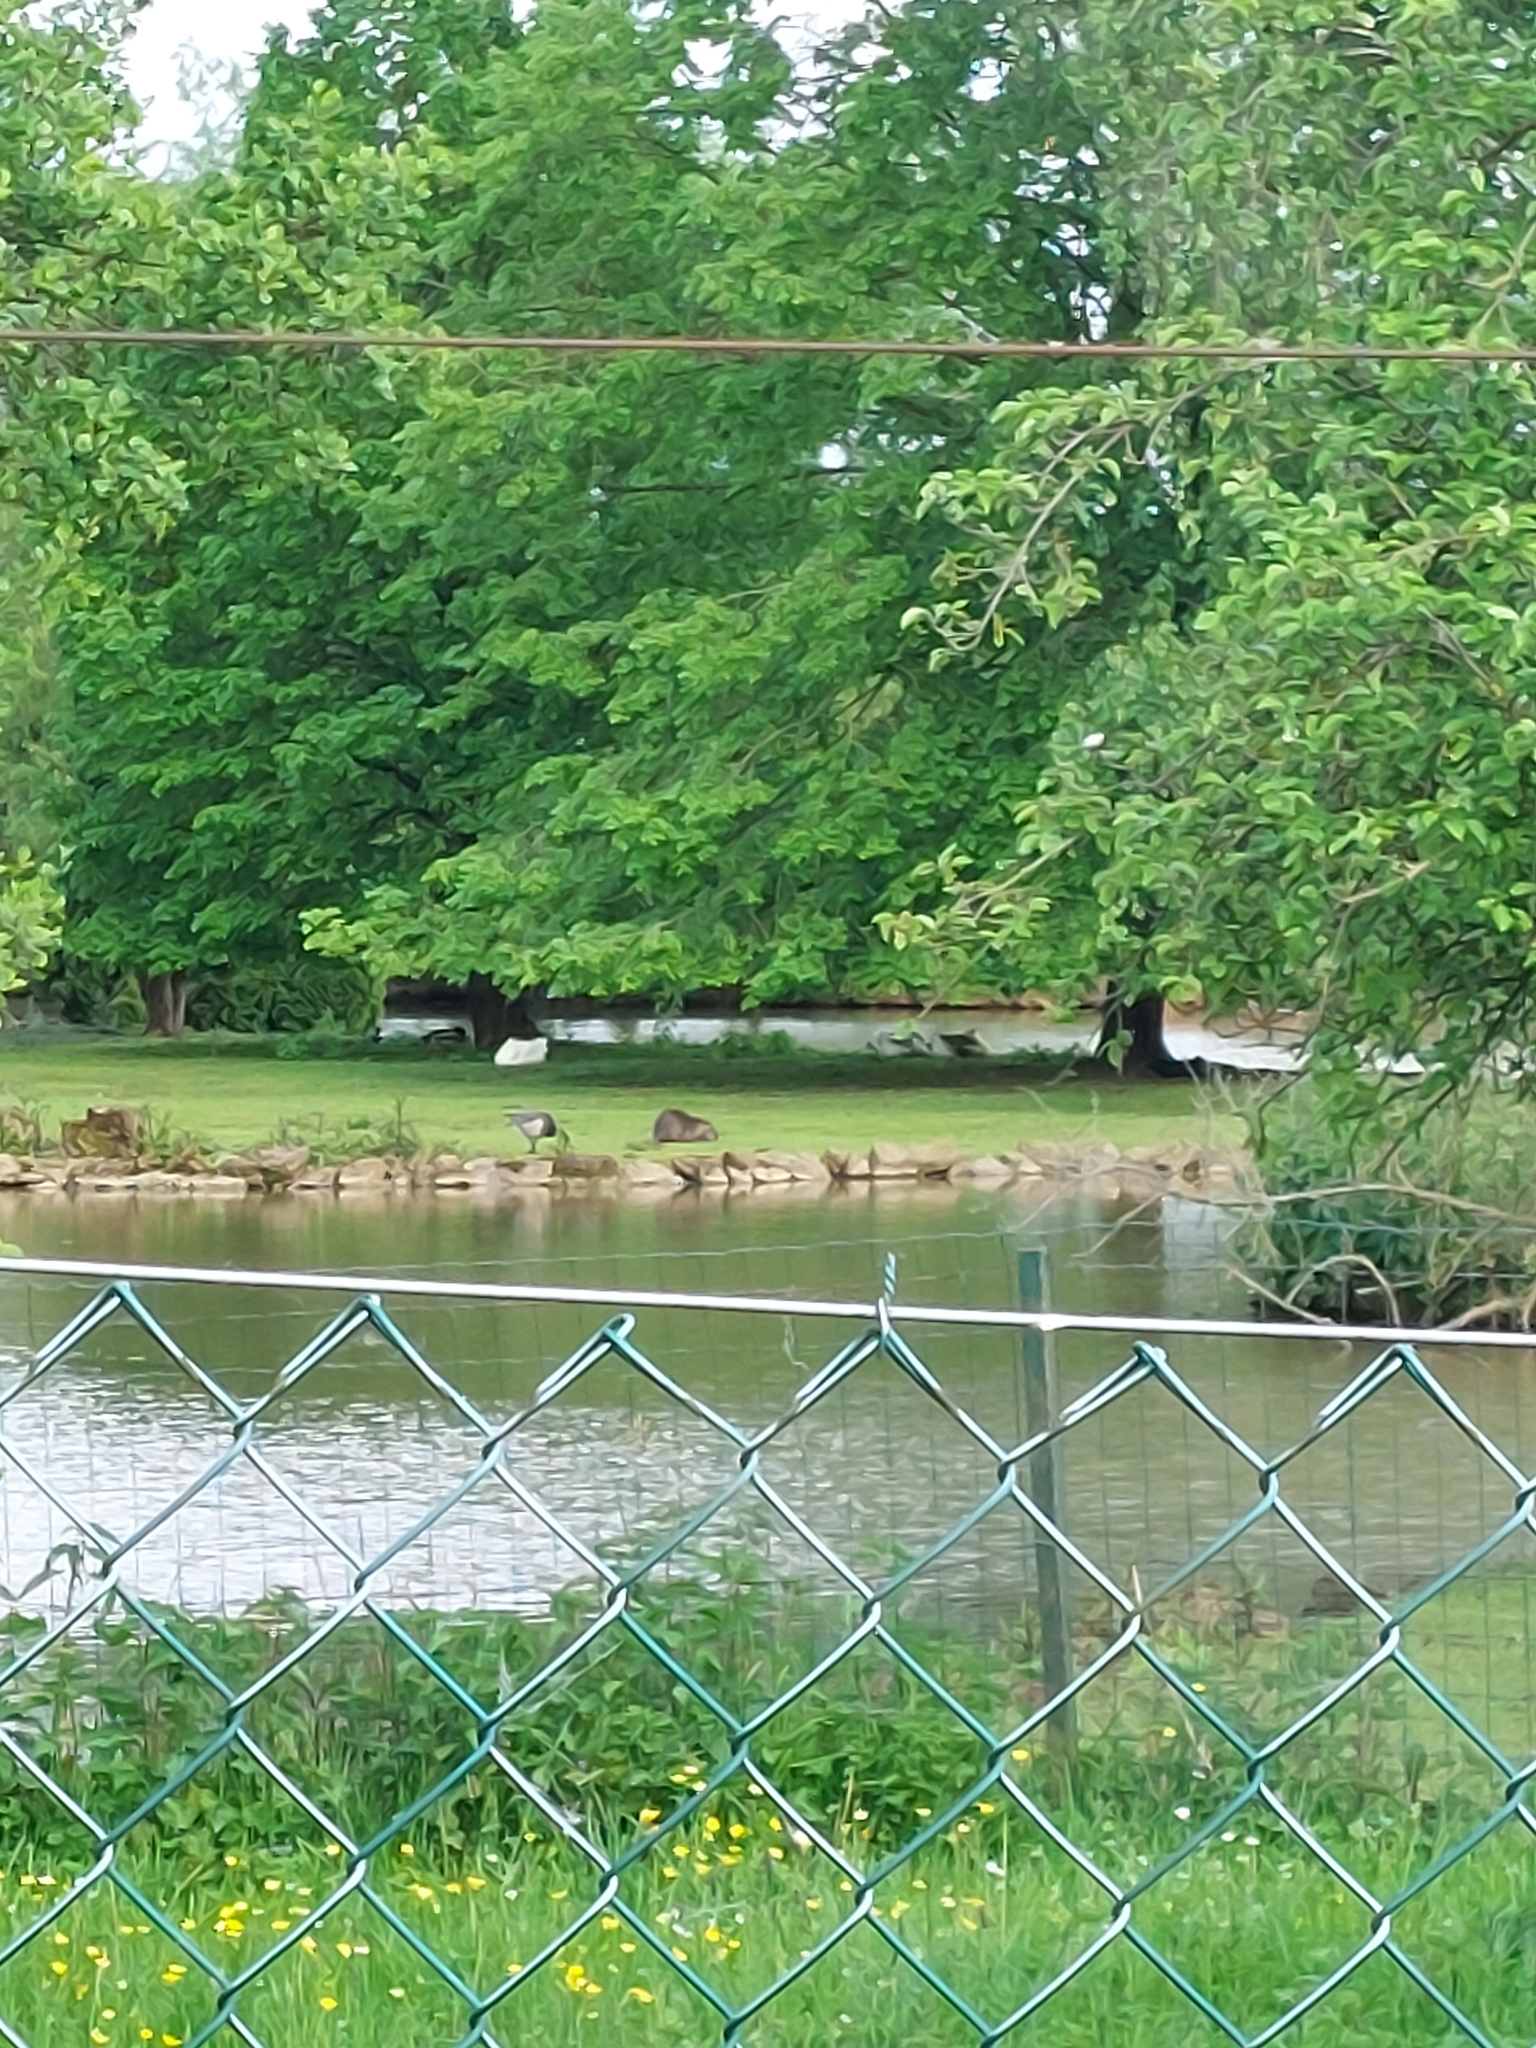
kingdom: Animalia
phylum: Chordata
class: Mammalia
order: Rodentia
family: Myocastoridae
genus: Myocastor
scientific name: Myocastor coypus
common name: Coypu
